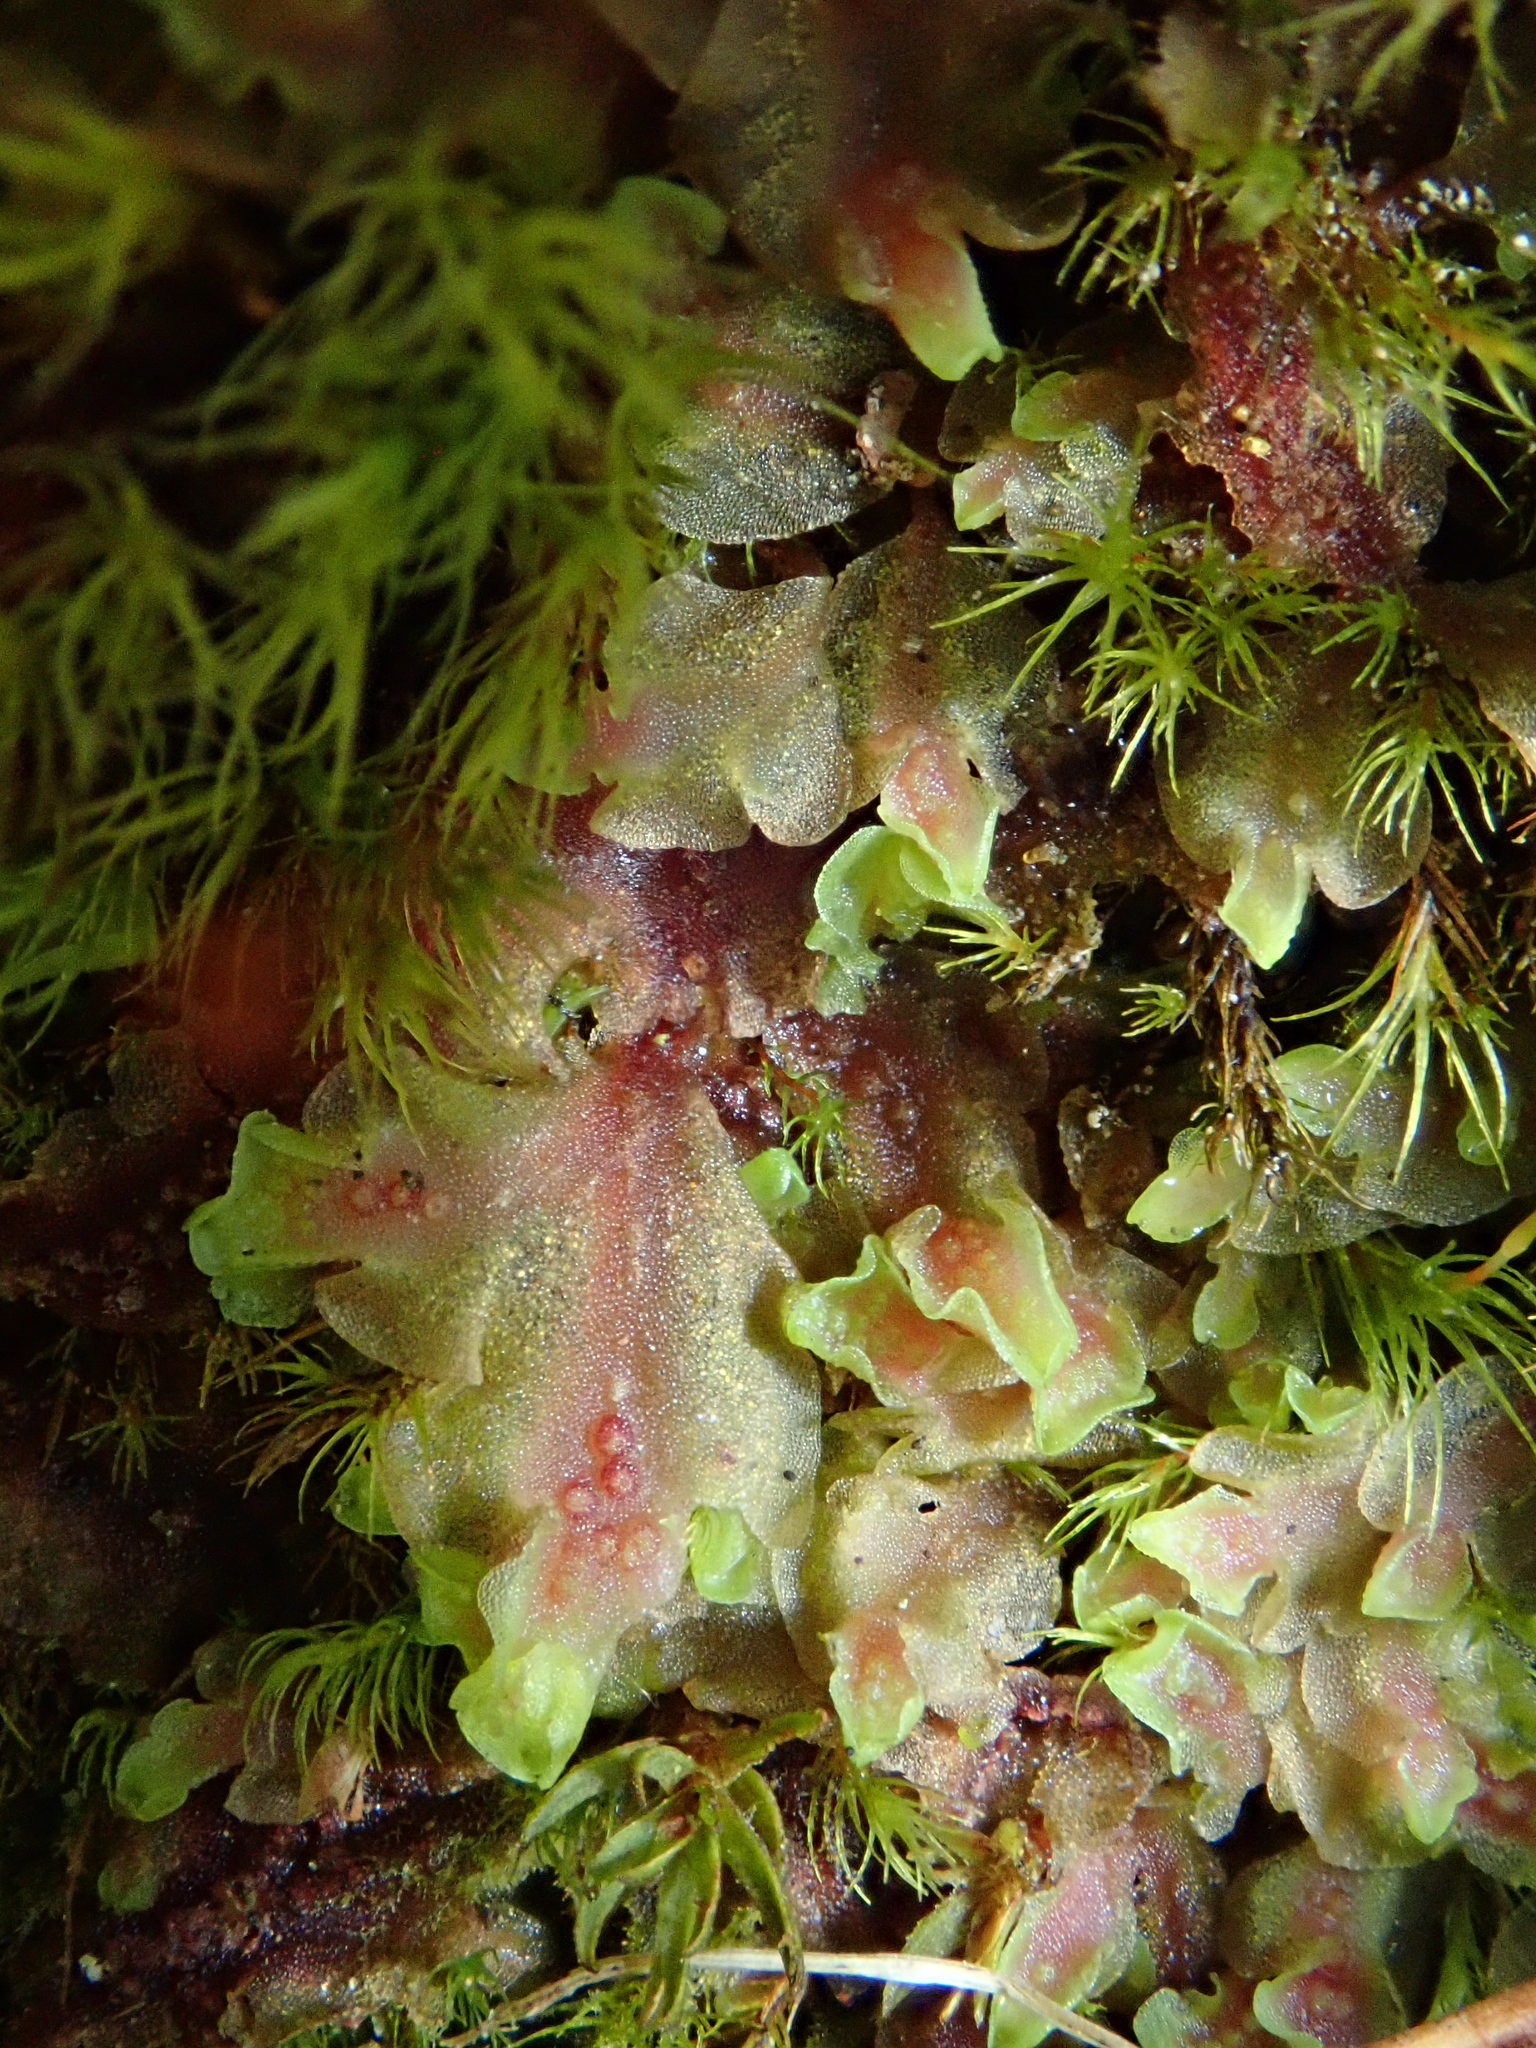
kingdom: Plantae
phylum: Marchantiophyta
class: Jungermanniopsida
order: Pelliales
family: Pelliaceae
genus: Pellia
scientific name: Pellia neesiana
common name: Nees  pellia
